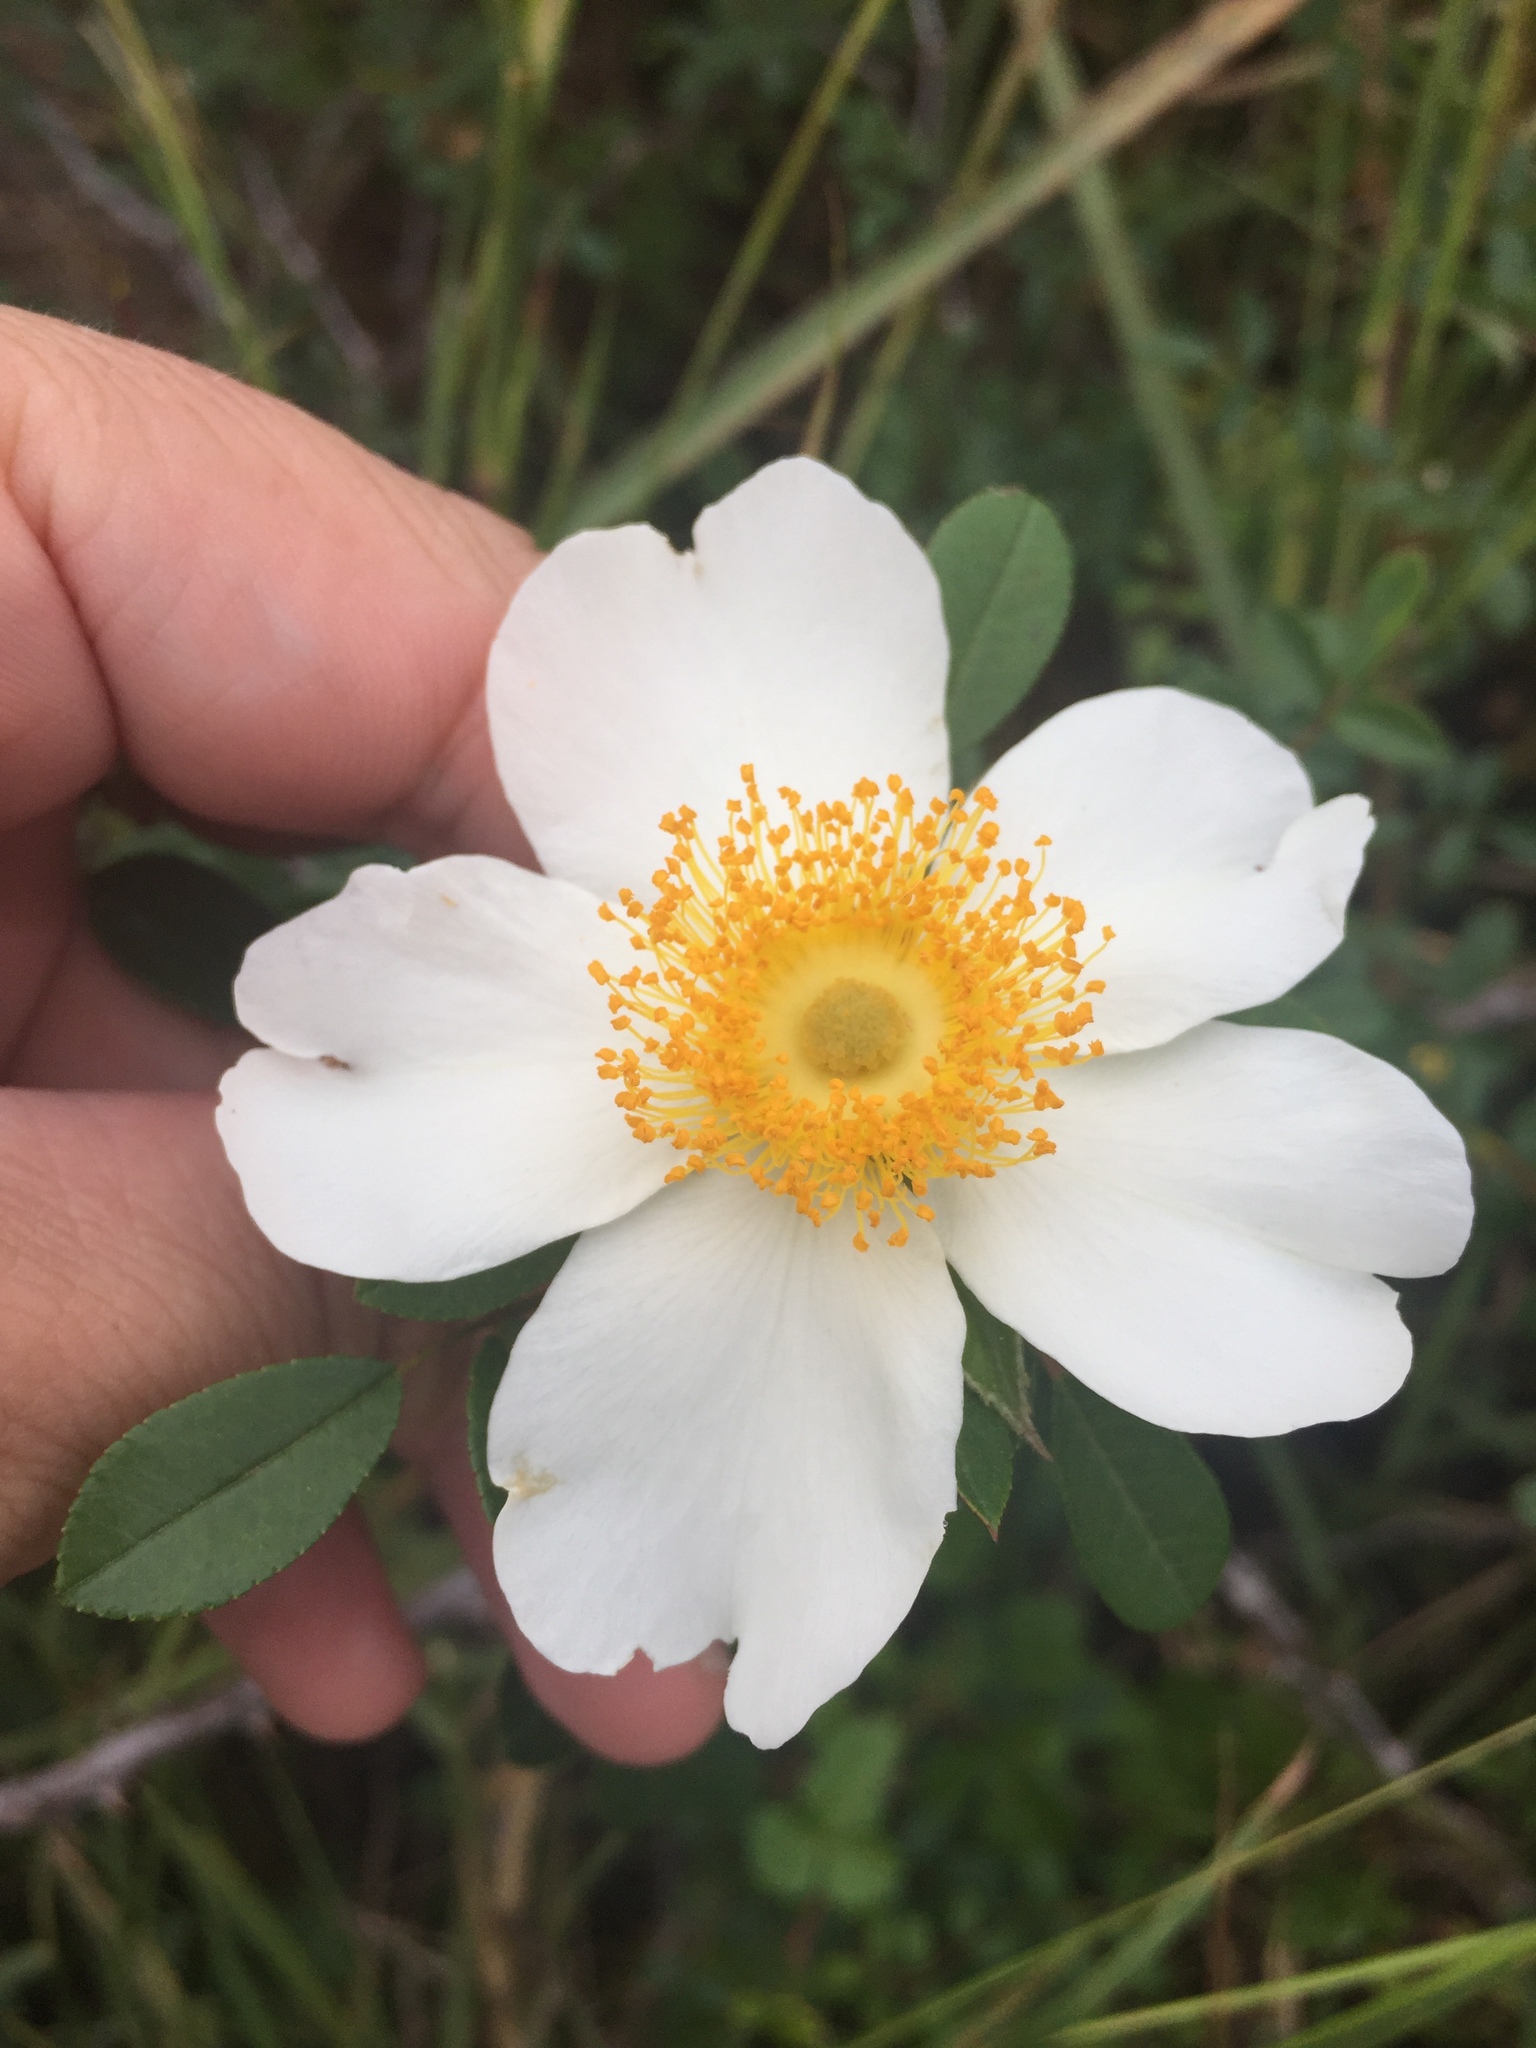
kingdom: Plantae
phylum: Tracheophyta
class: Magnoliopsida
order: Rosales
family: Rosaceae
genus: Rosa
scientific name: Rosa bracteata
